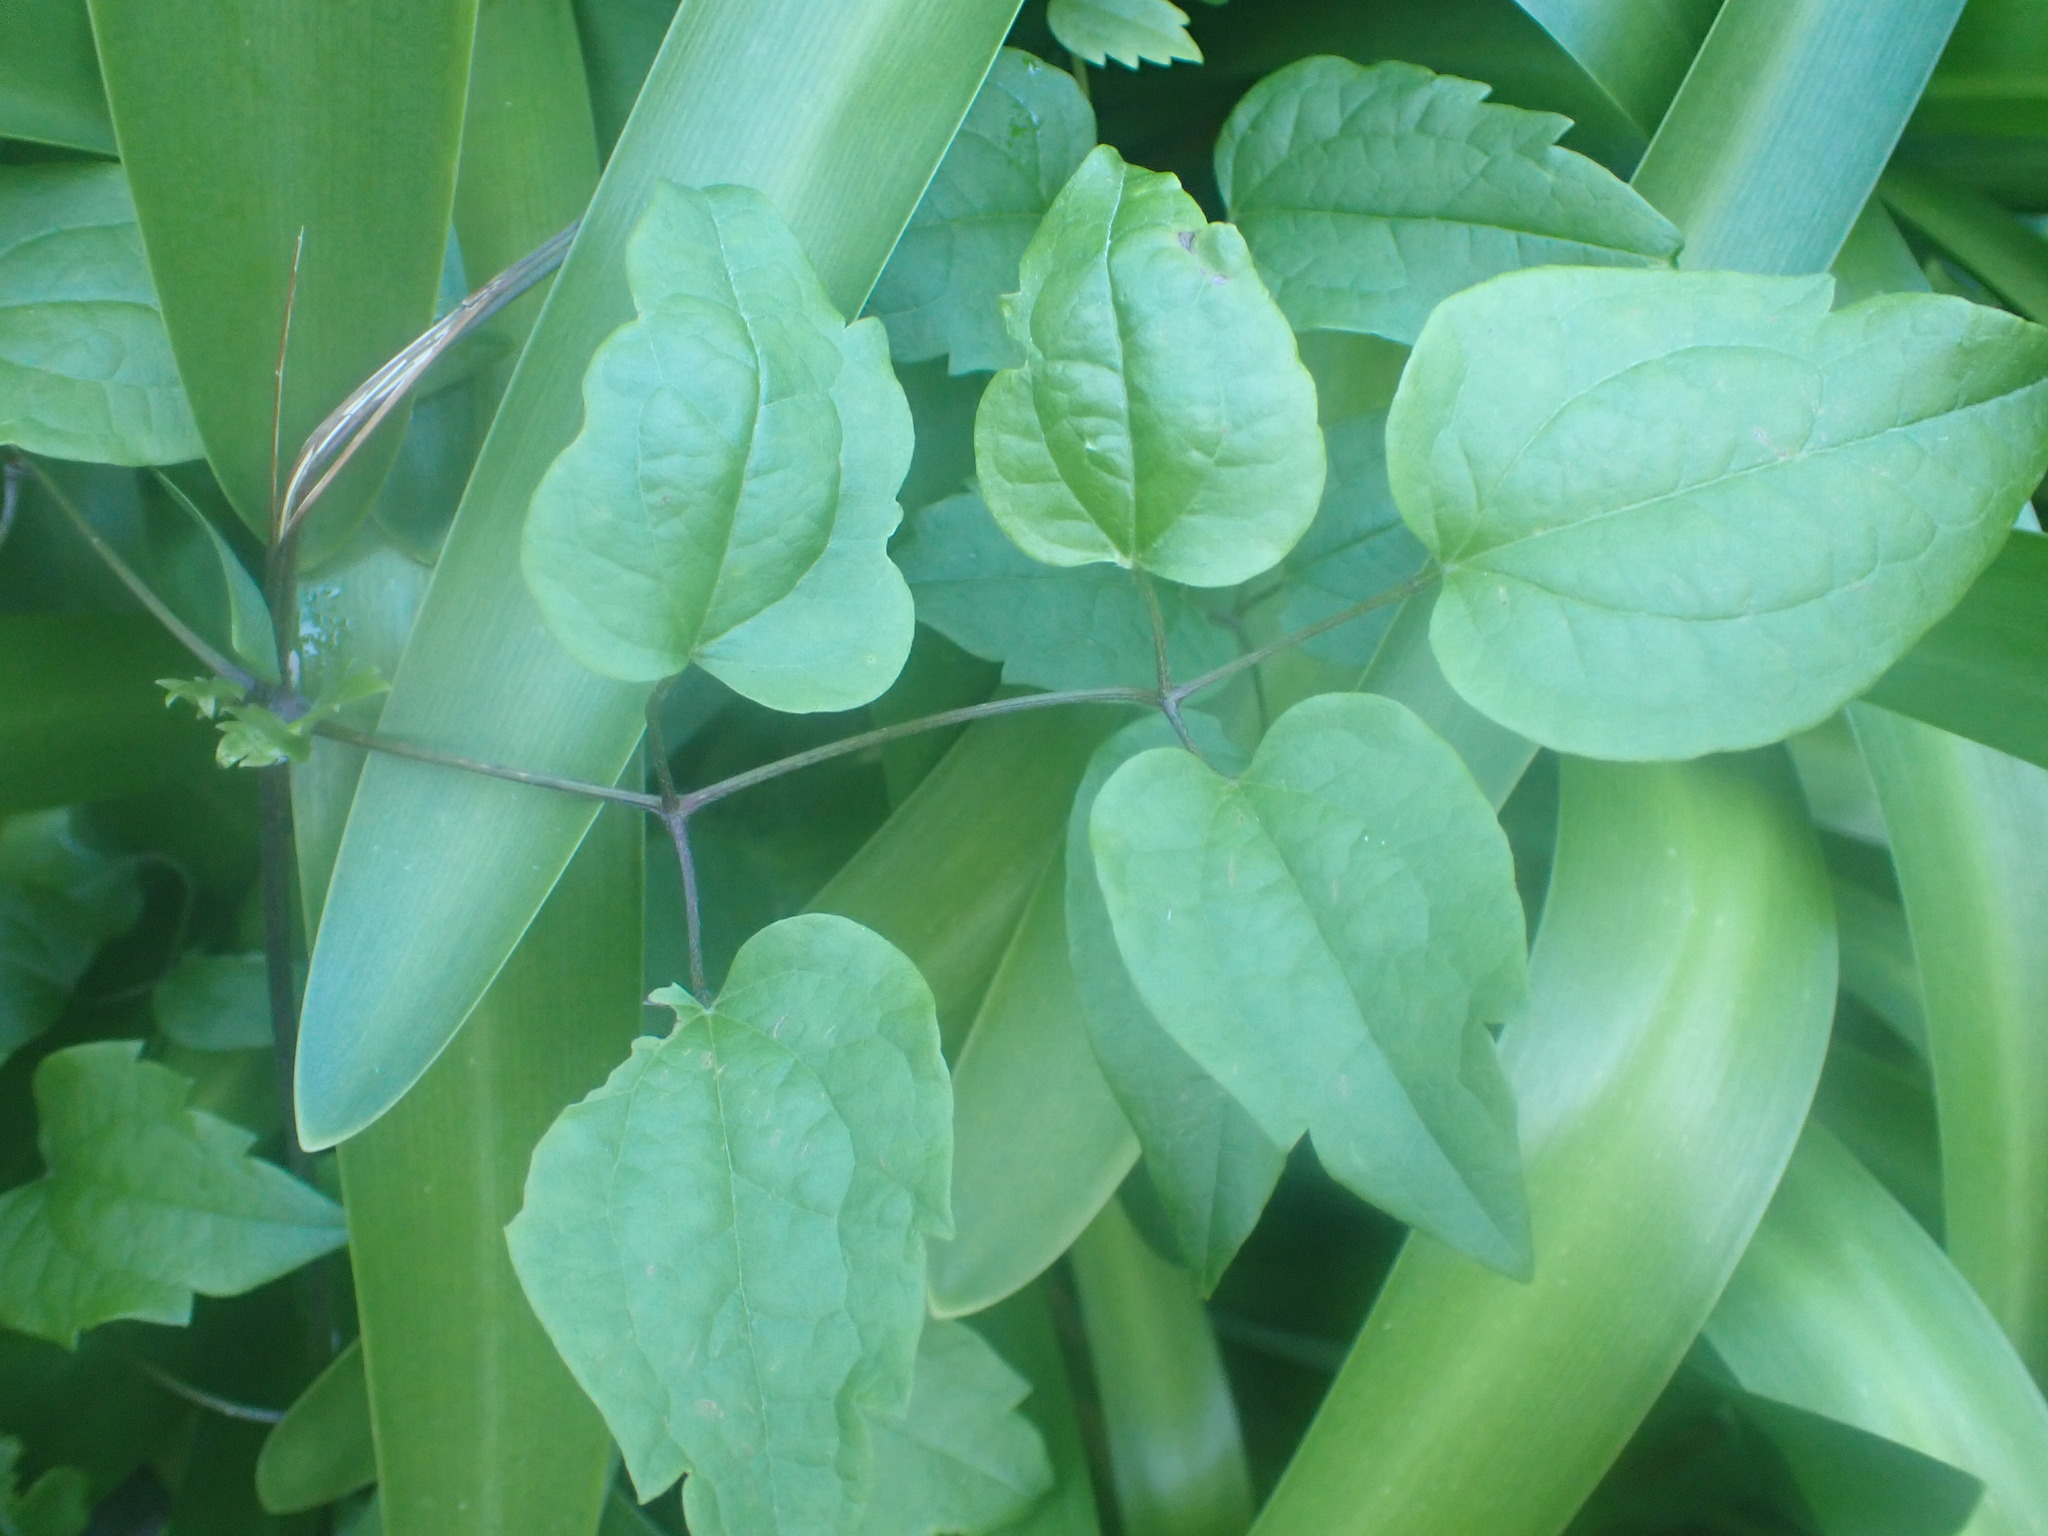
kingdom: Plantae
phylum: Tracheophyta
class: Magnoliopsida
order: Ranunculales
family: Ranunculaceae
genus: Clematis
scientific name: Clematis vitalba
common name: Evergreen clematis
